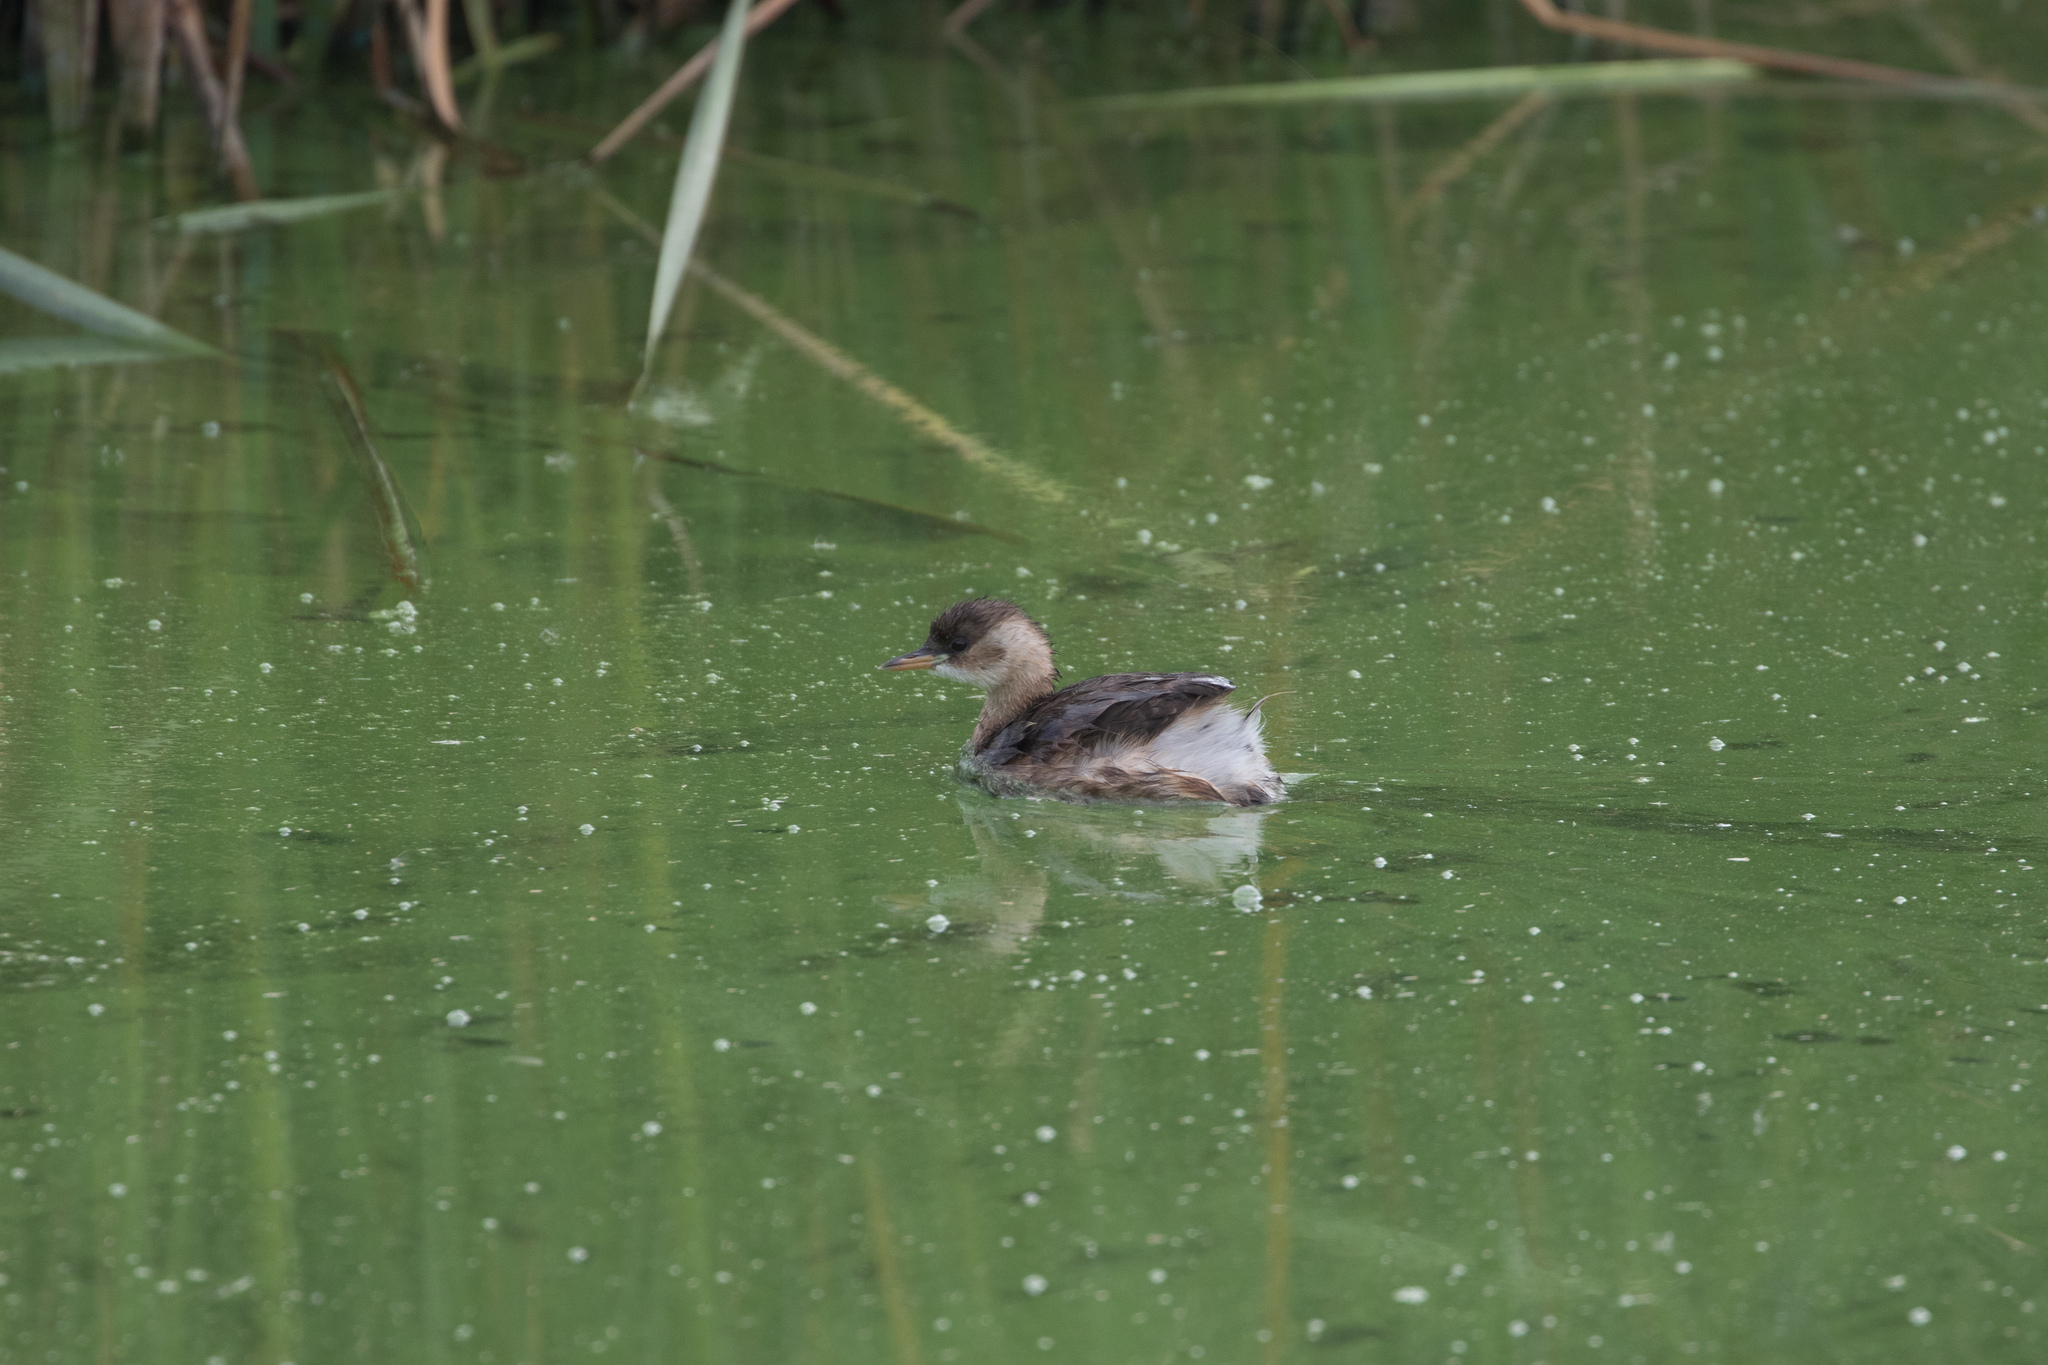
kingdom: Animalia
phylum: Chordata
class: Aves
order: Podicipediformes
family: Podicipedidae
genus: Tachybaptus
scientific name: Tachybaptus ruficollis
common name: Little grebe
